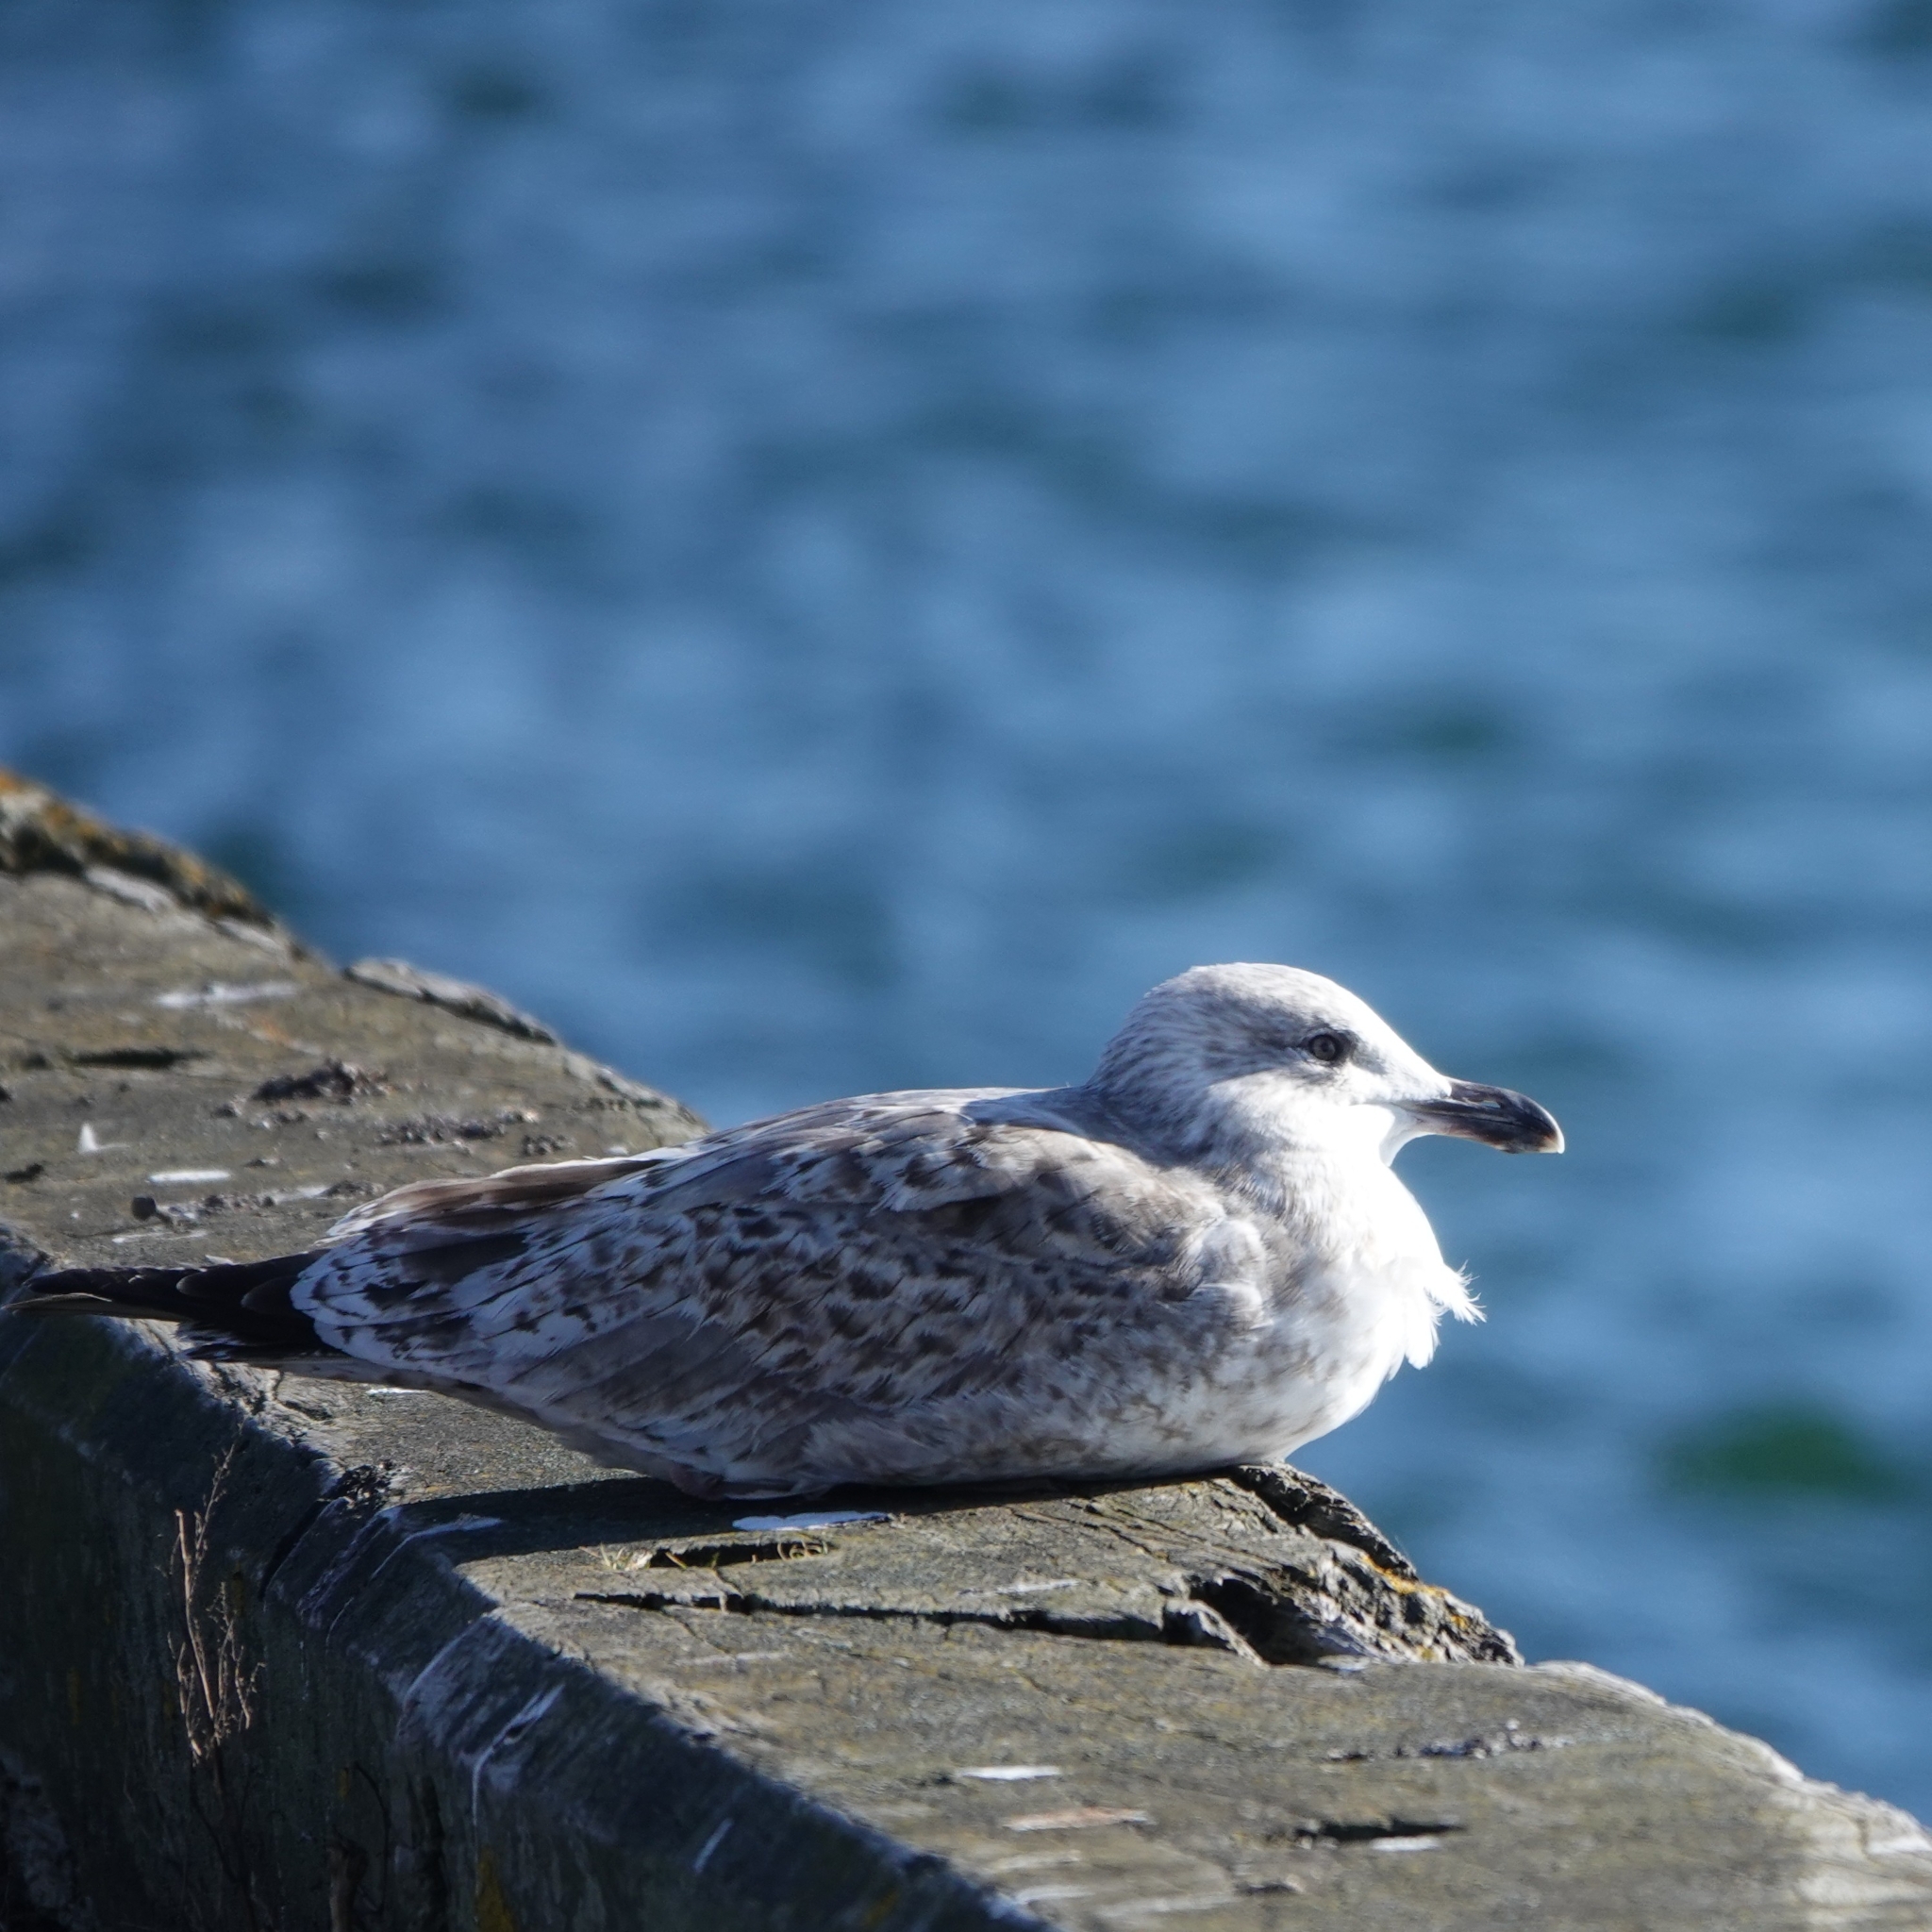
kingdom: Animalia
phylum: Chordata
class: Aves
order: Charadriiformes
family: Laridae
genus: Larus
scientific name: Larus argentatus
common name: Herring gull
